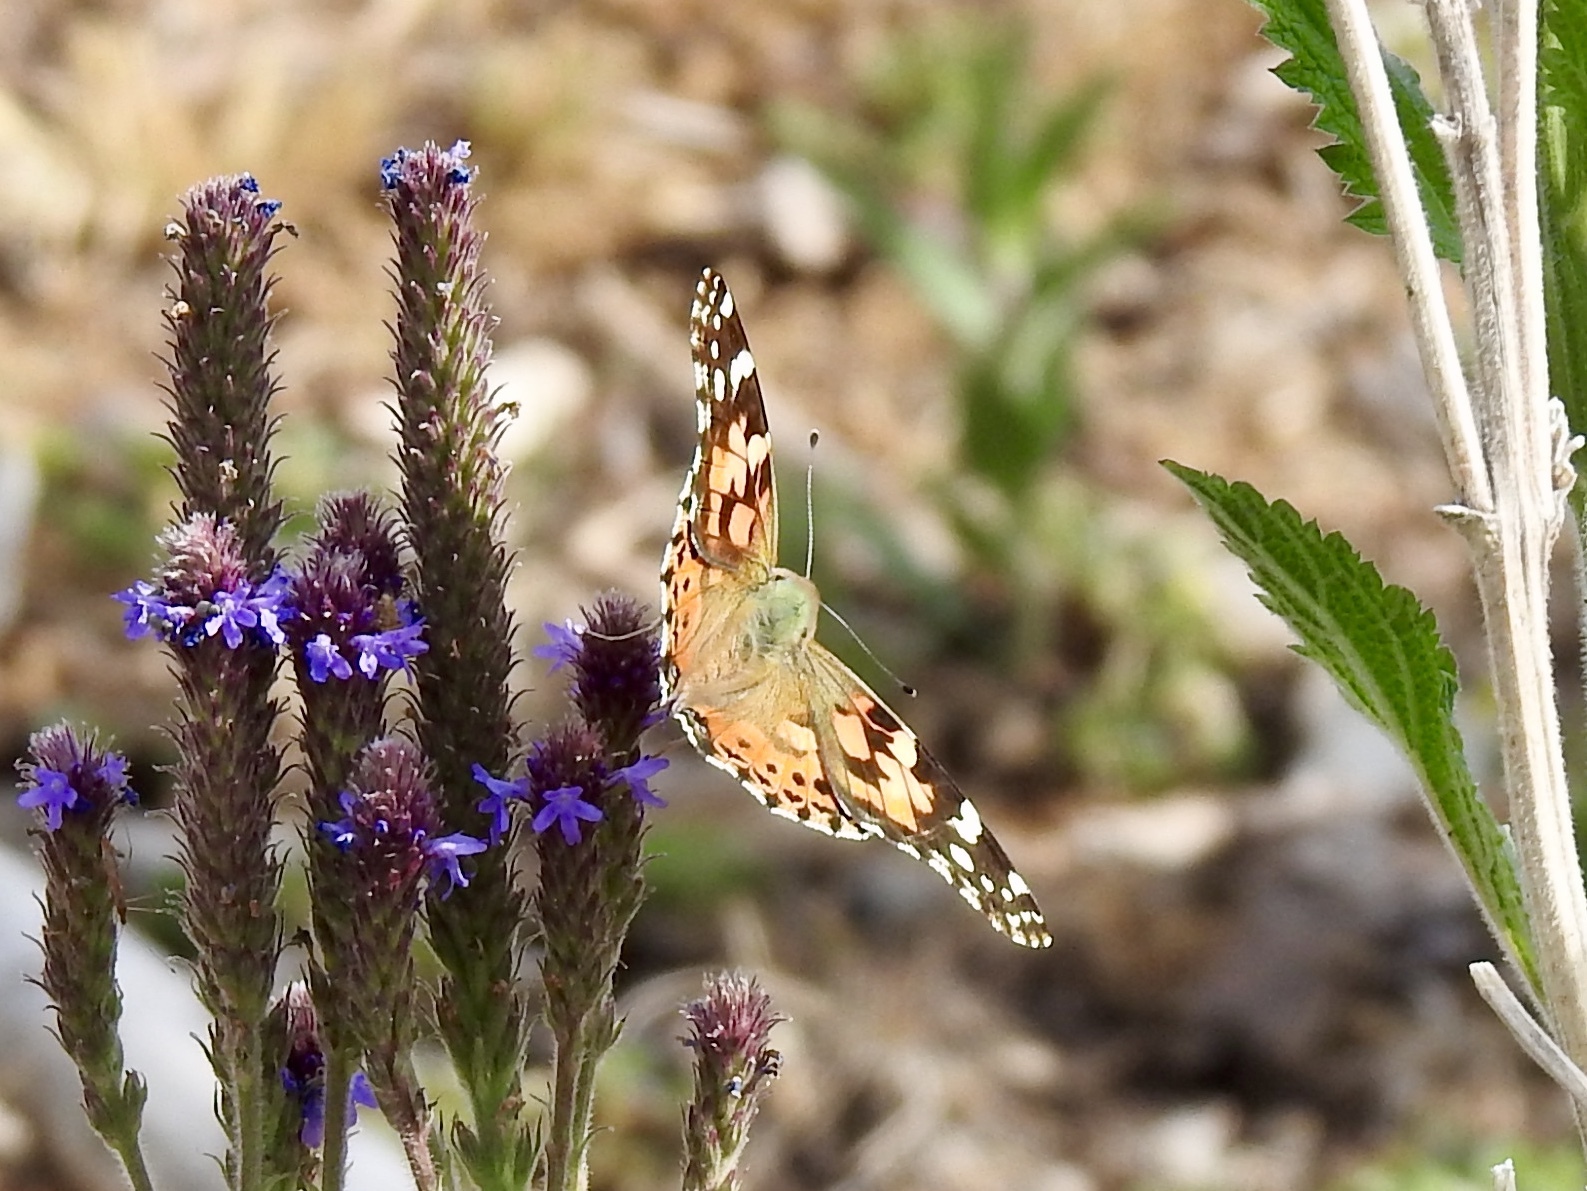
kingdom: Animalia
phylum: Arthropoda
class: Insecta
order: Lepidoptera
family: Nymphalidae
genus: Vanessa
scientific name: Vanessa cardui
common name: Painted lady
